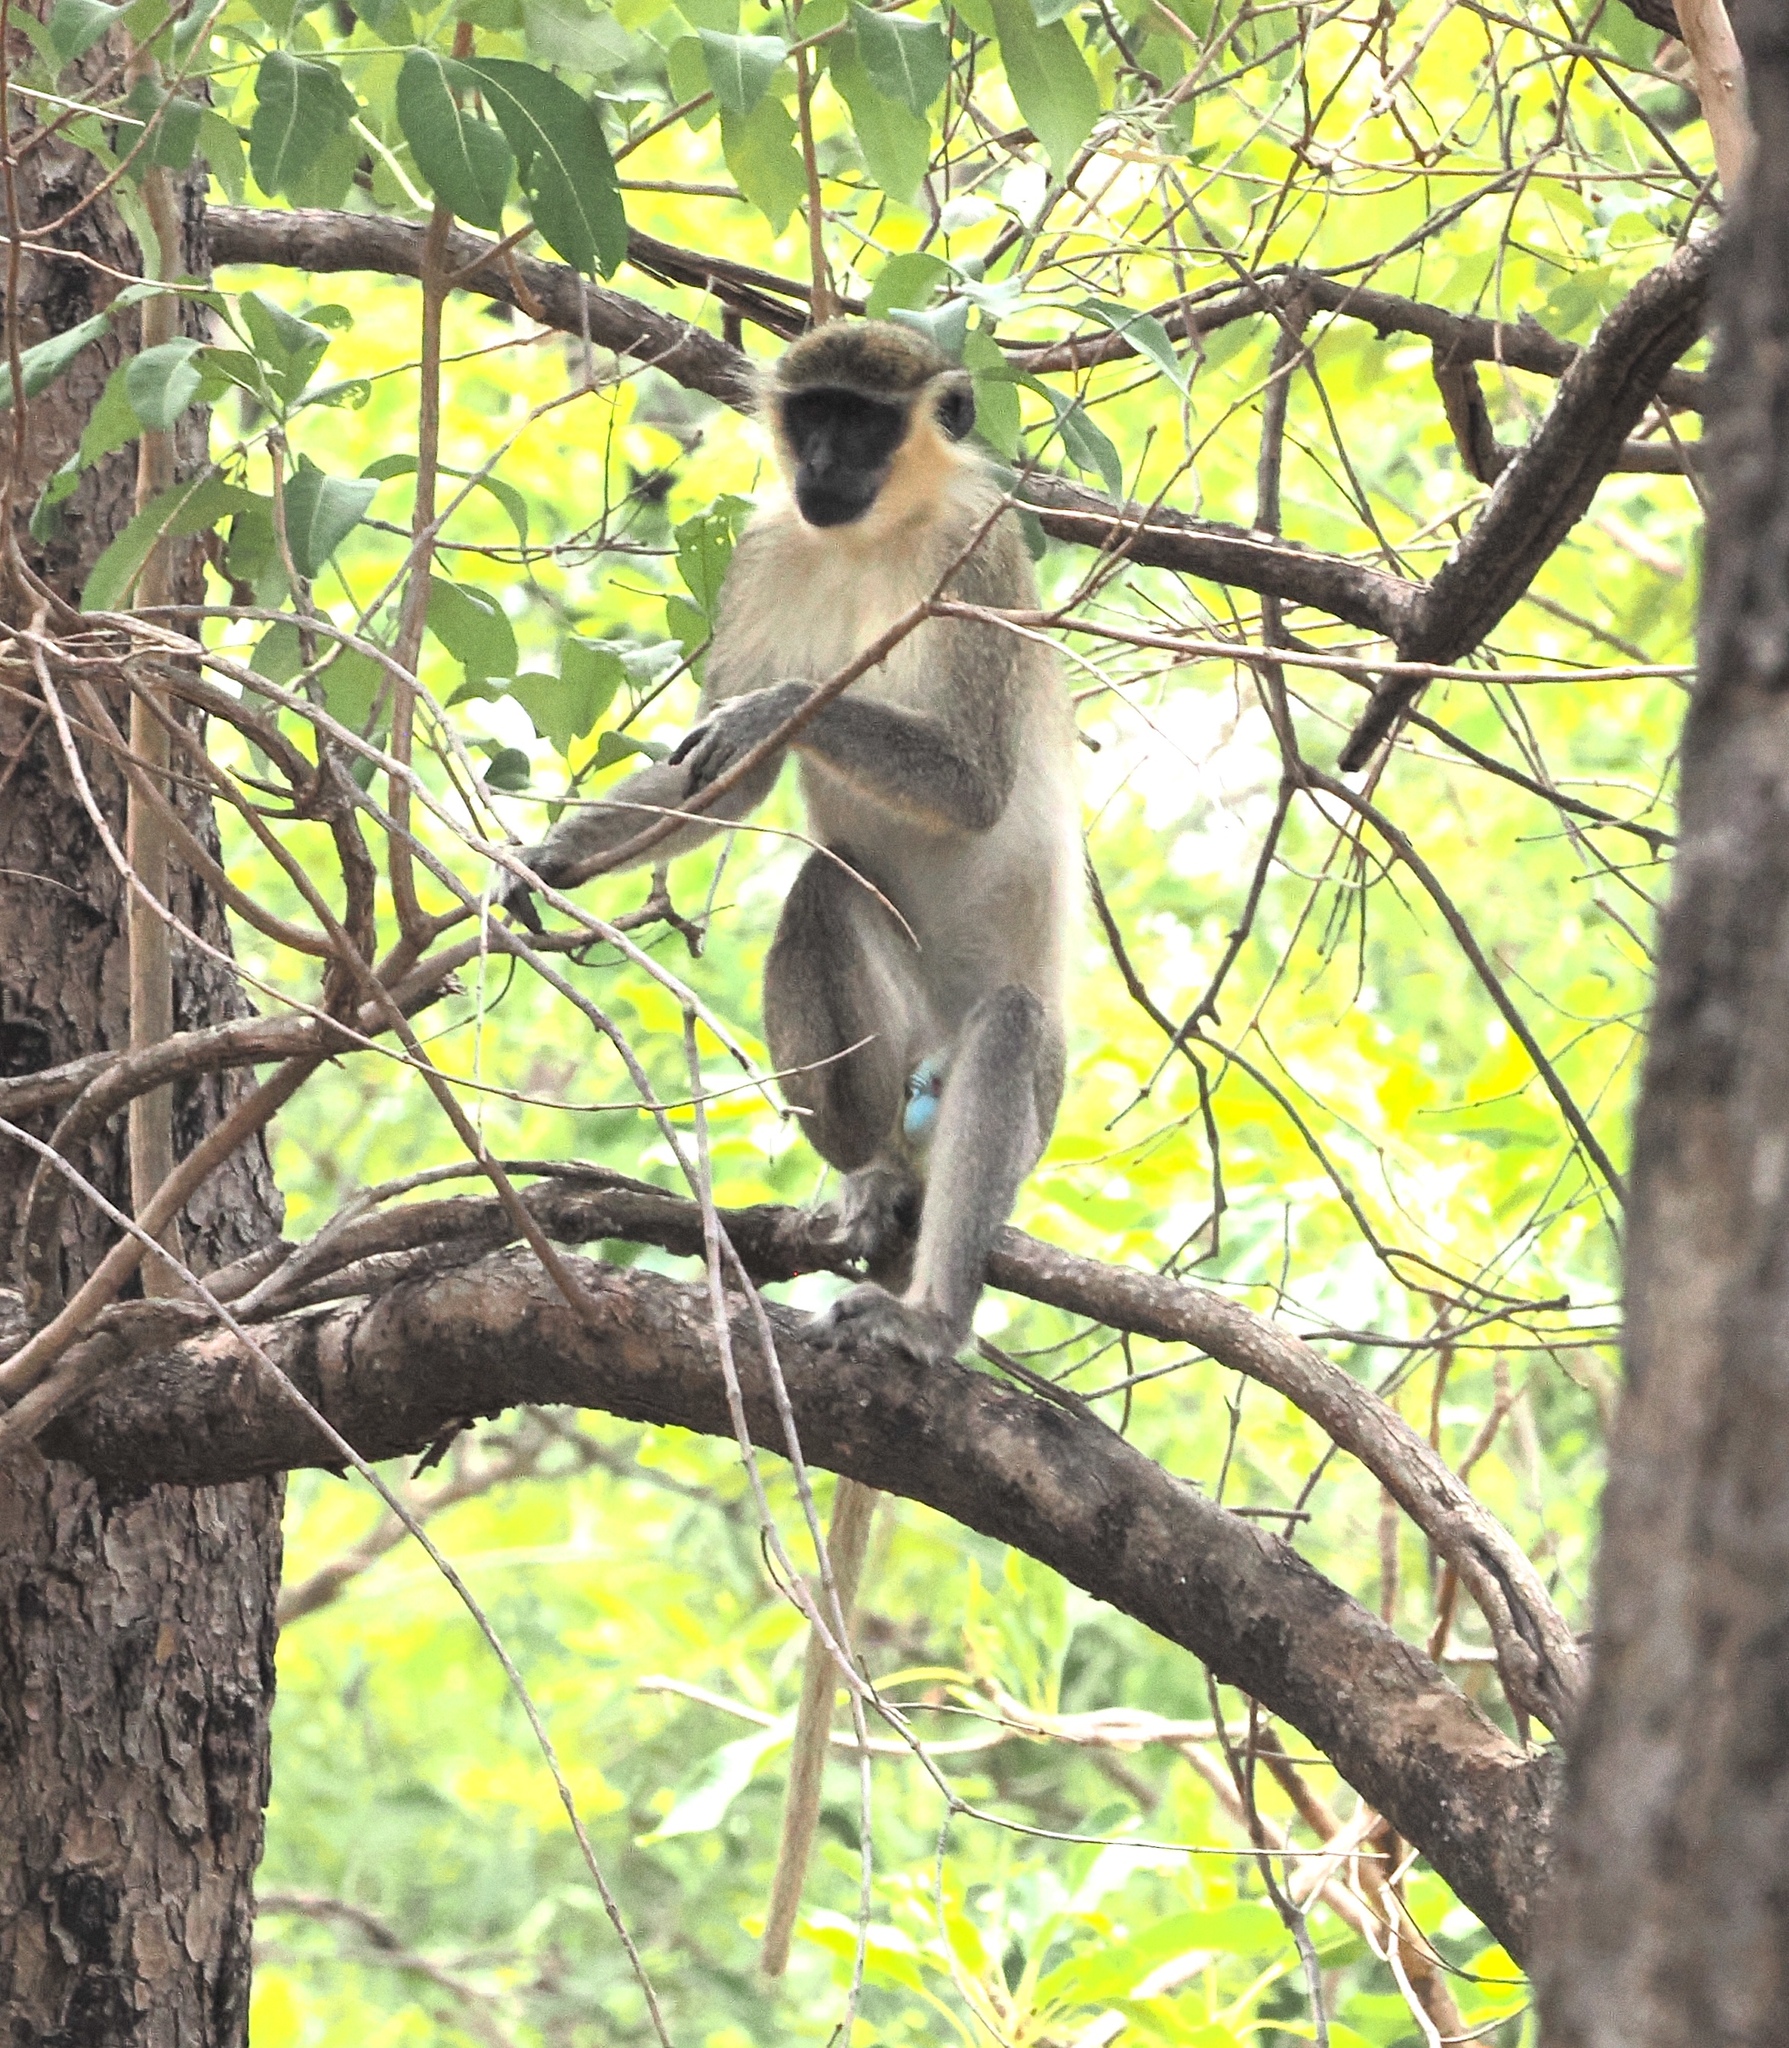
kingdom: Animalia
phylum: Chordata
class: Mammalia
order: Primates
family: Cercopithecidae
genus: Chlorocebus
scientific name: Chlorocebus sabaeus
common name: Green monkey
